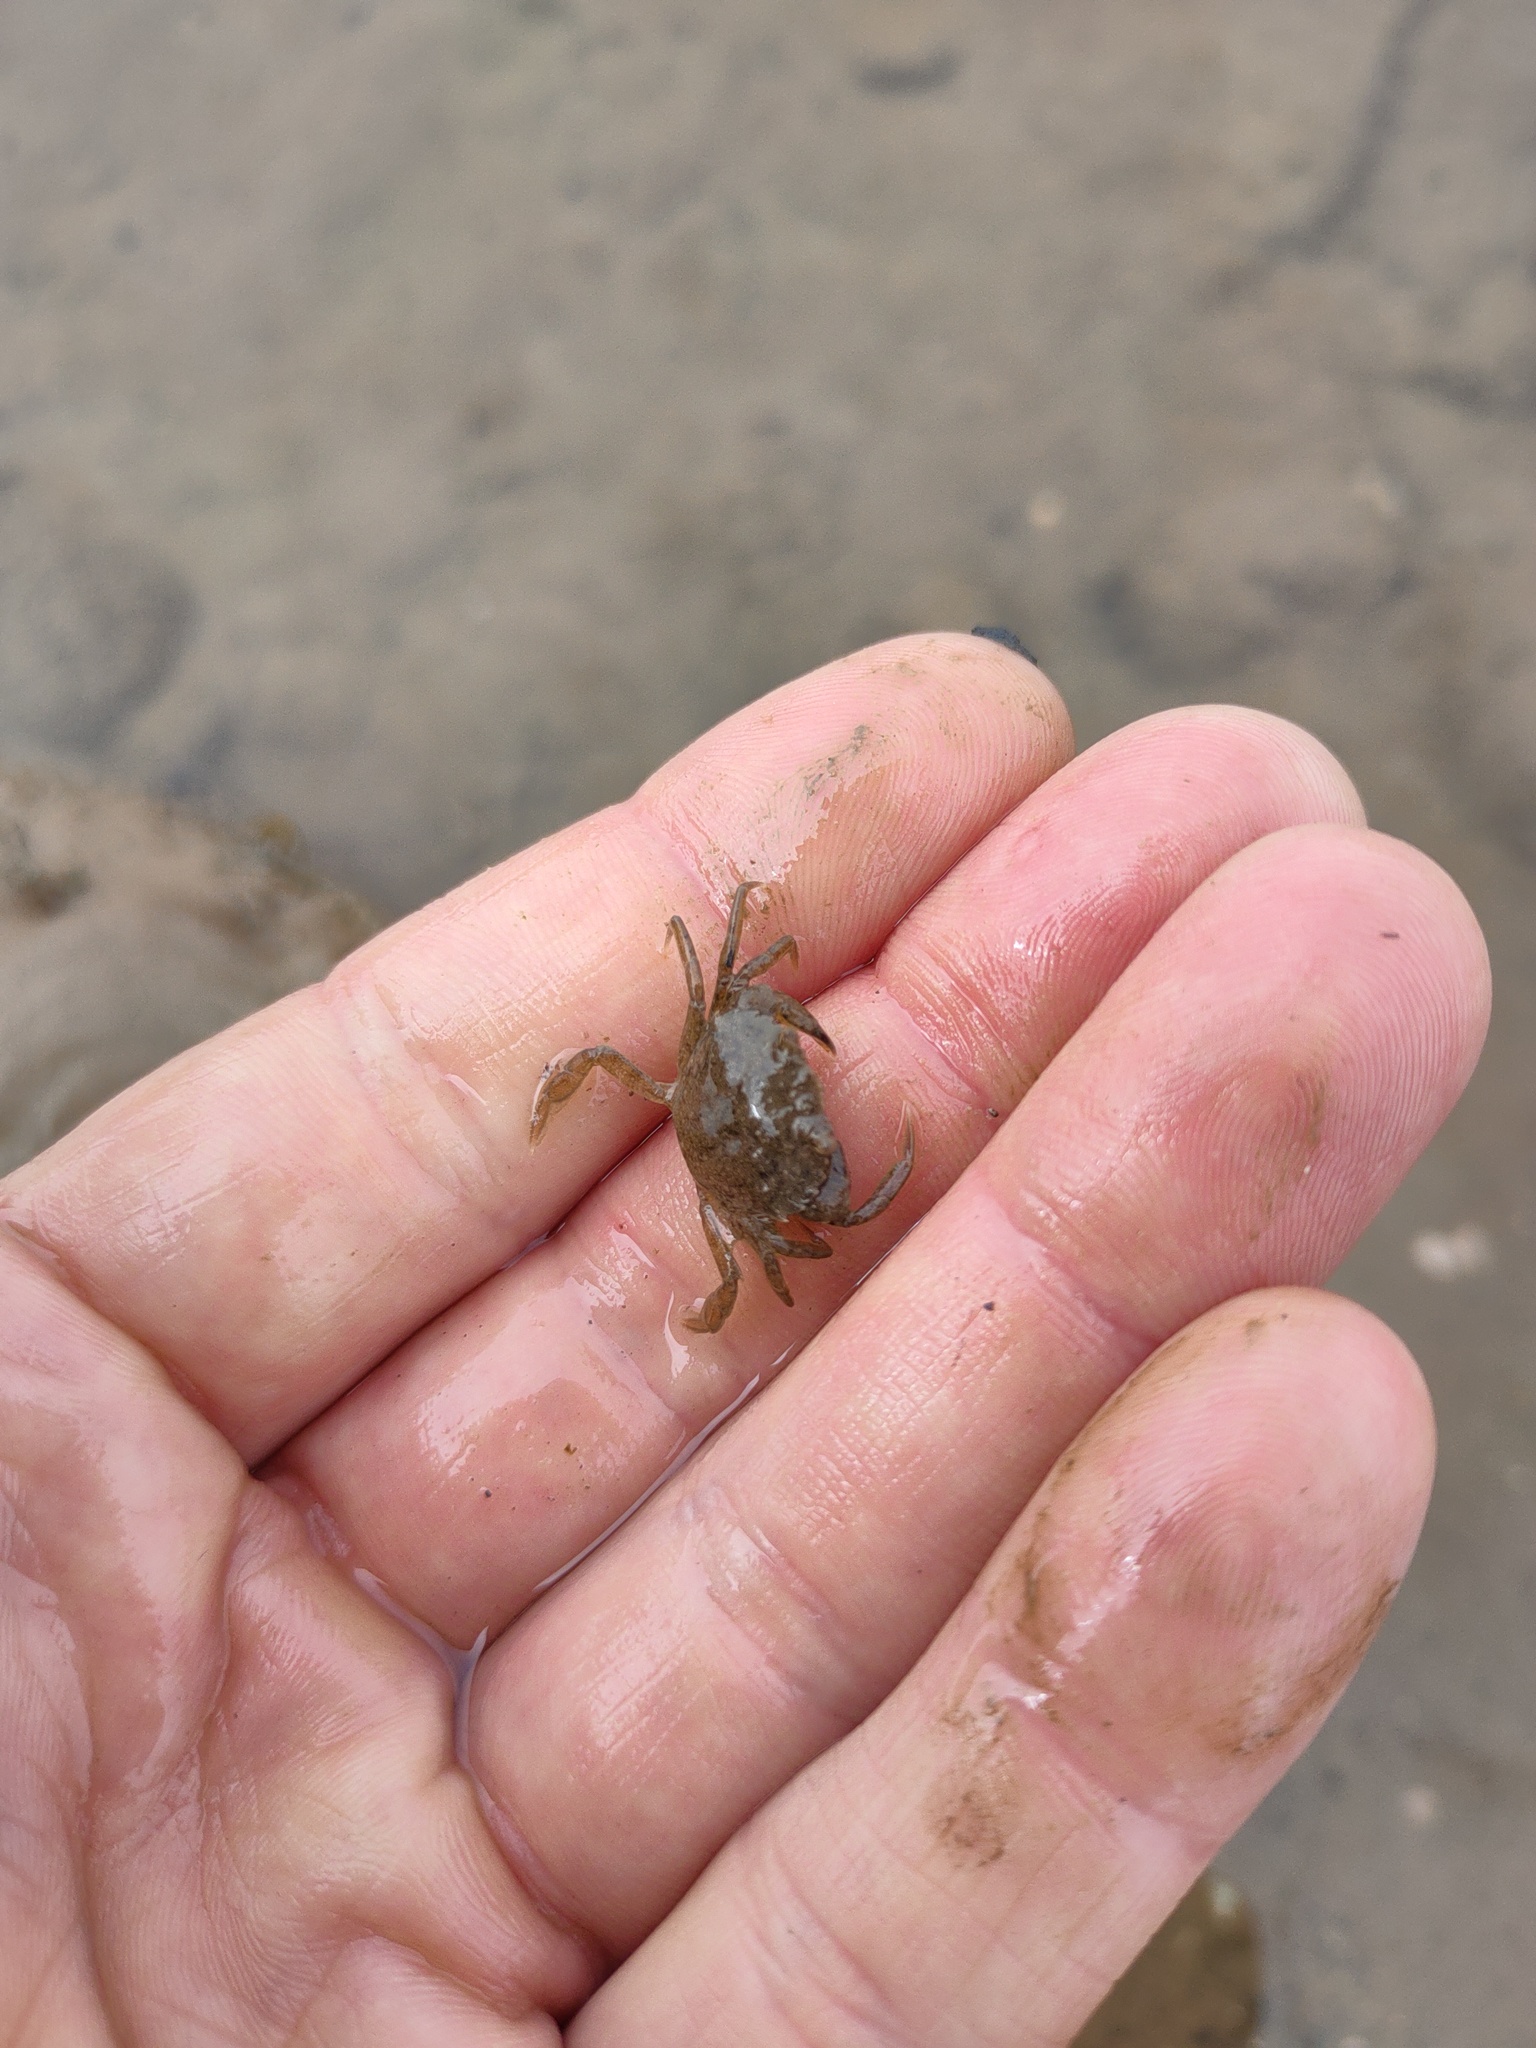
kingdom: Animalia
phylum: Arthropoda
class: Malacostraca
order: Decapoda
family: Carcinidae
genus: Carcinus
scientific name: Carcinus maenas
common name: European green crab
